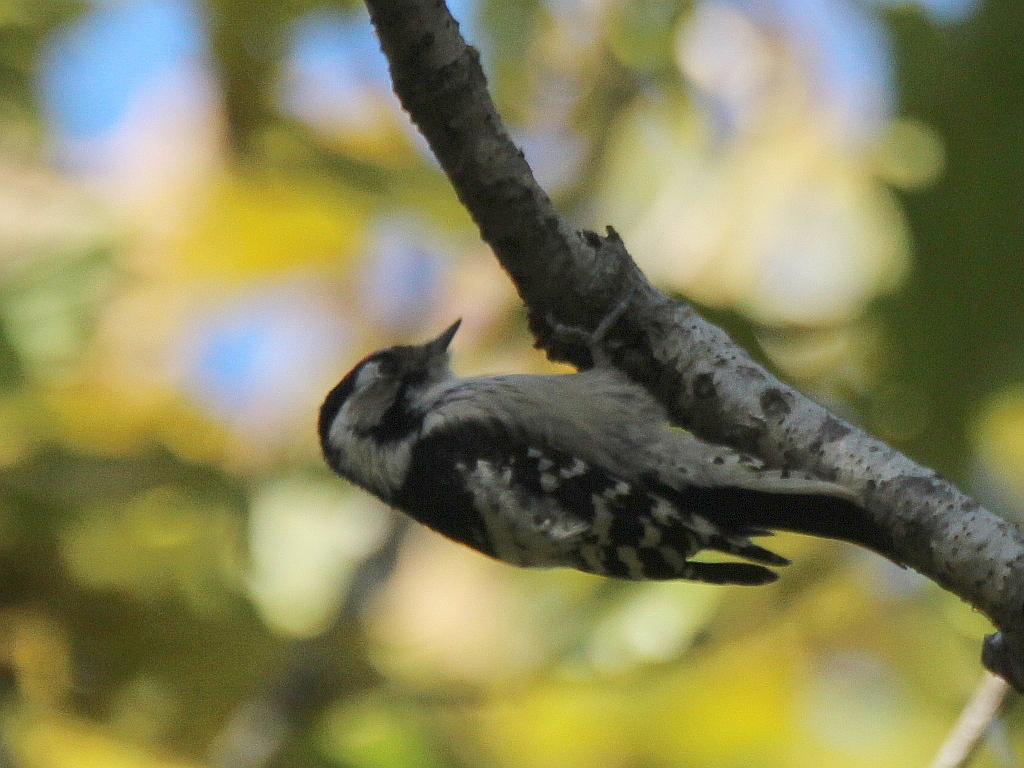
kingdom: Animalia
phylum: Chordata
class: Aves
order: Piciformes
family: Picidae
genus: Dryobates
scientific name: Dryobates minor
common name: Lesser spotted woodpecker
